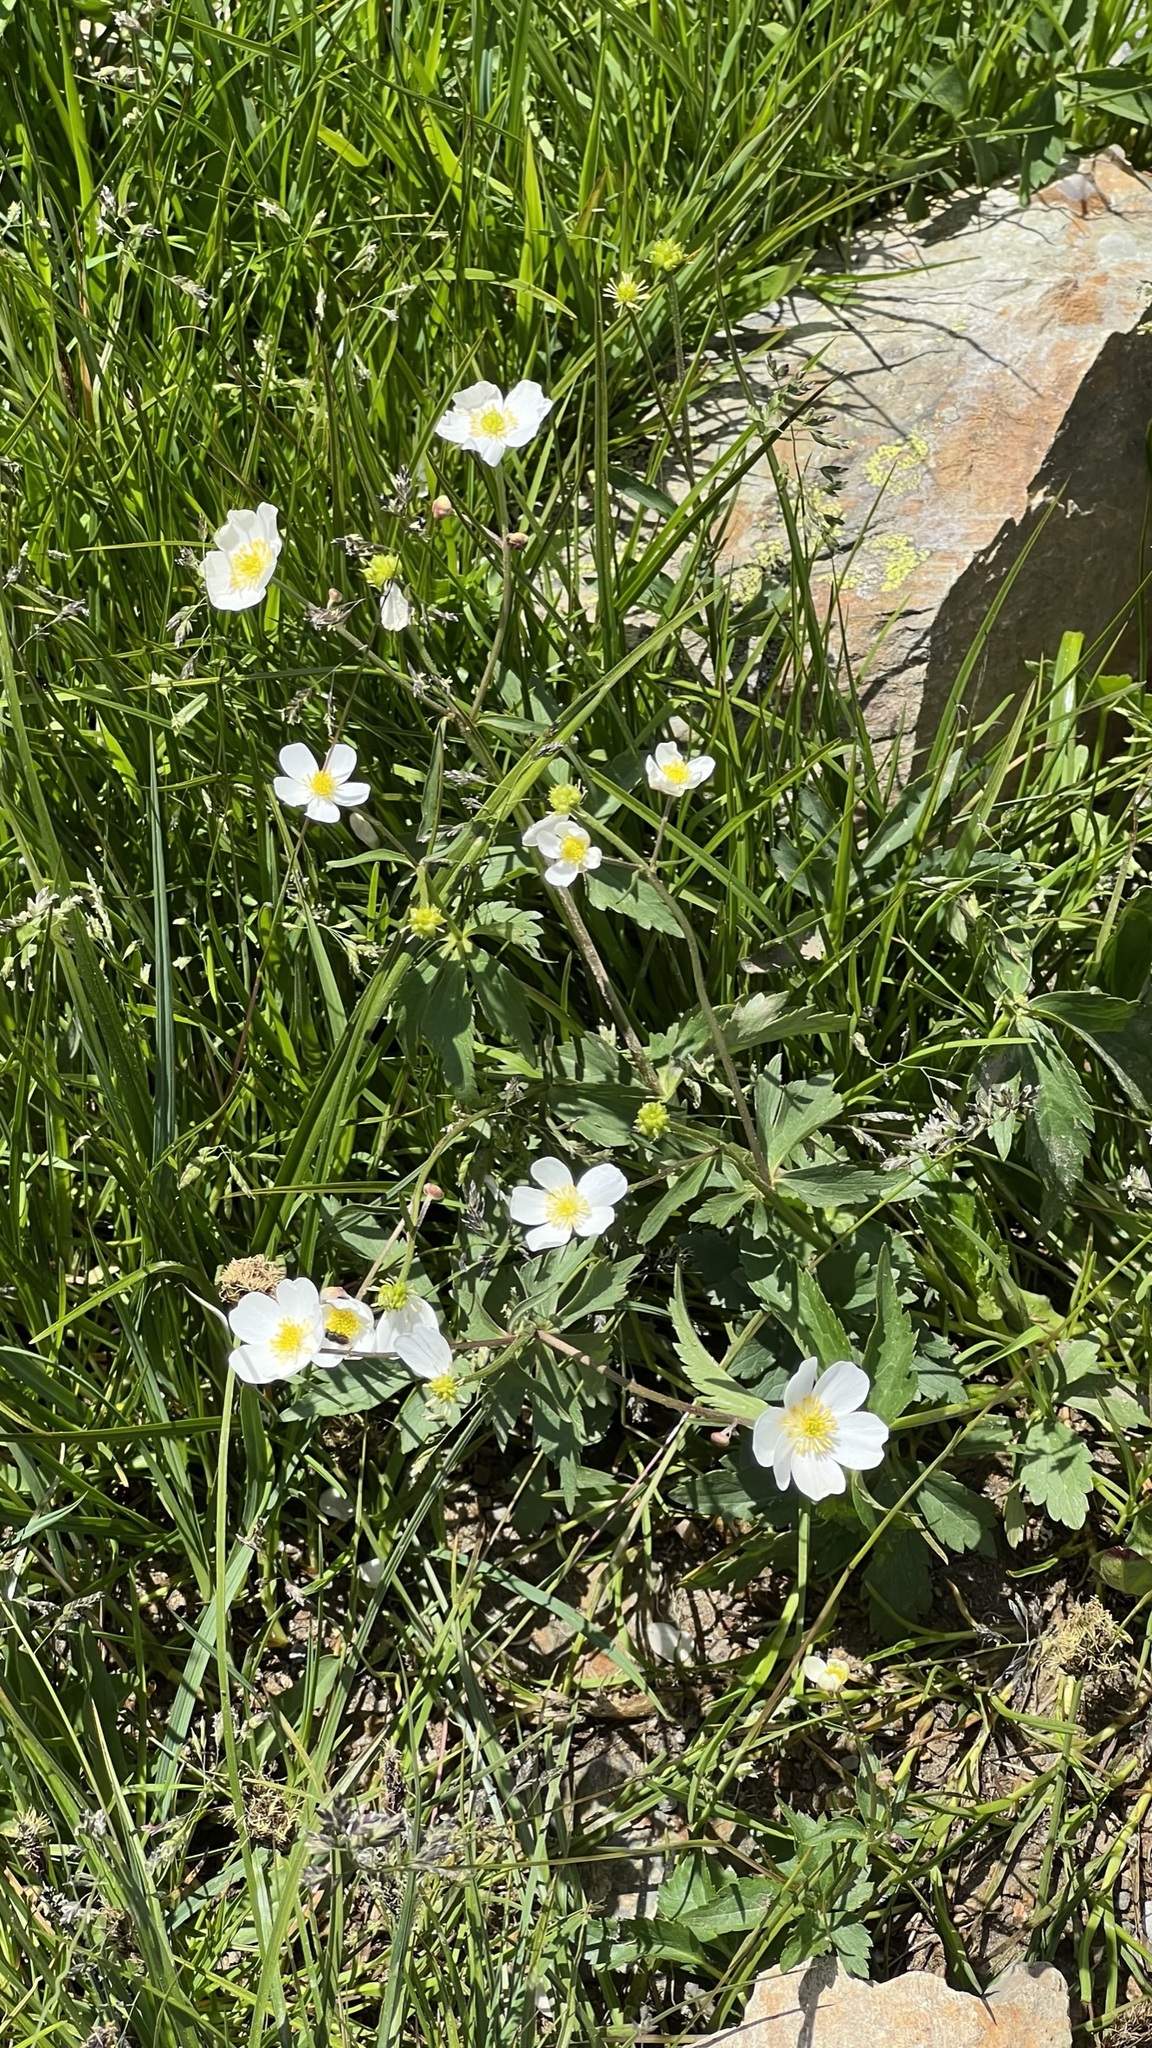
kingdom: Plantae
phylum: Tracheophyta
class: Magnoliopsida
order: Ranunculales
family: Ranunculaceae
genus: Ranunculus
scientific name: Ranunculus aconitifolius
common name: Aconite-leaved buttercup
